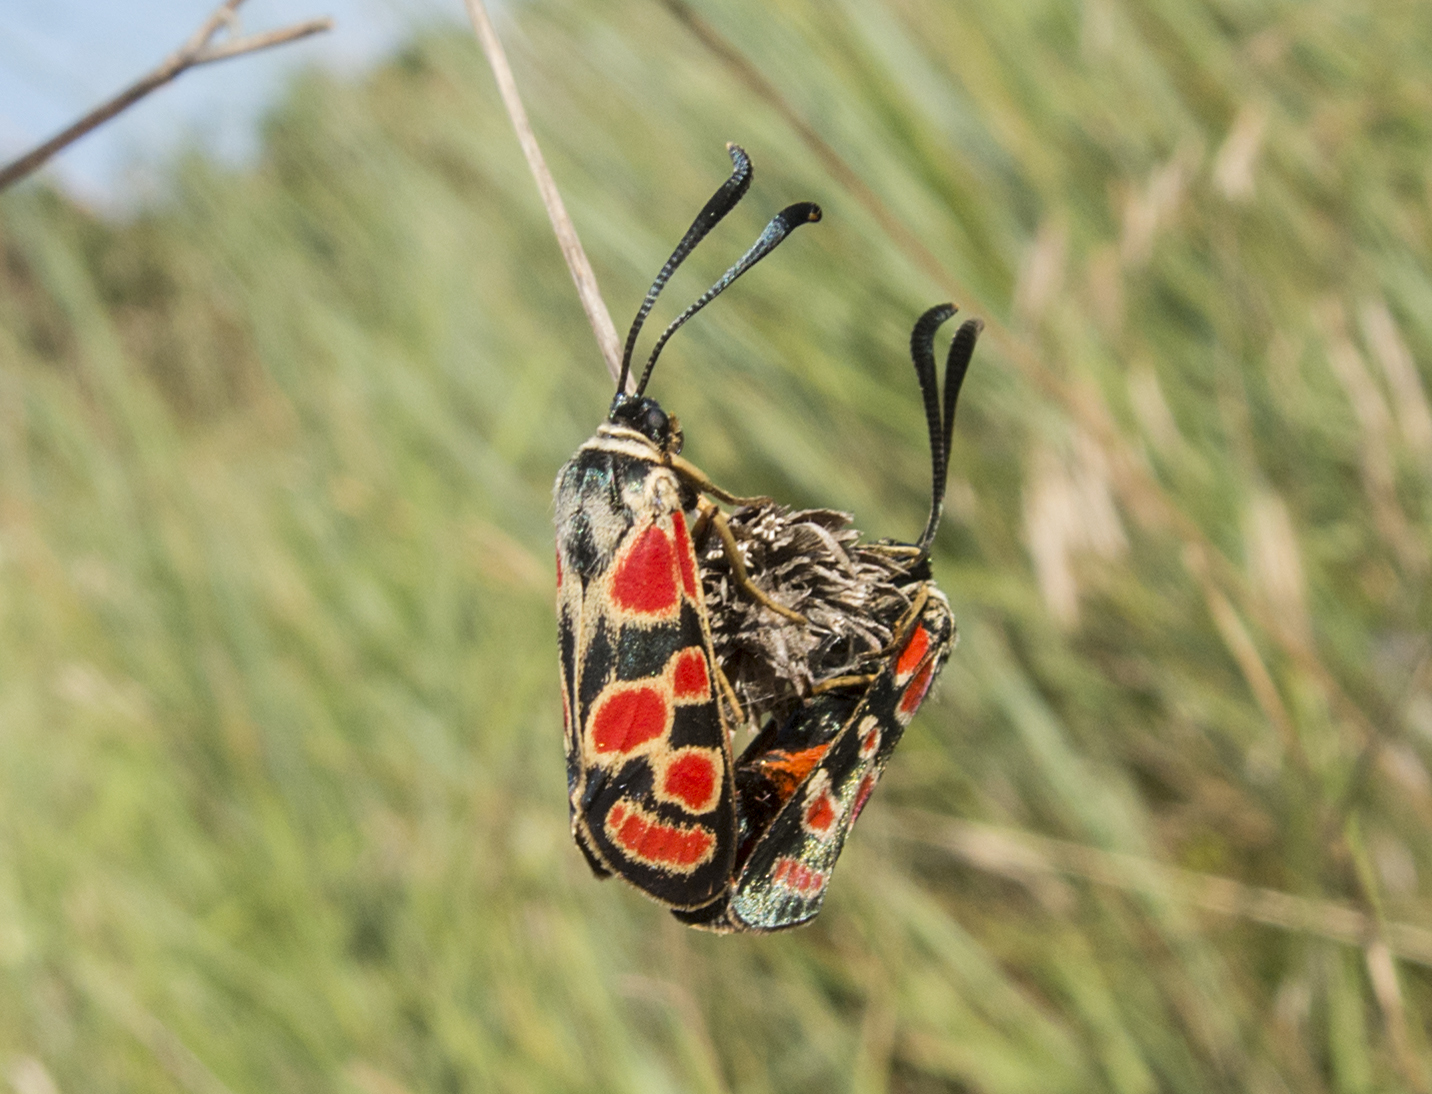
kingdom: Animalia
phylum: Arthropoda
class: Insecta
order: Lepidoptera
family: Zygaenidae
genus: Zygaena
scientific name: Zygaena carniolica
